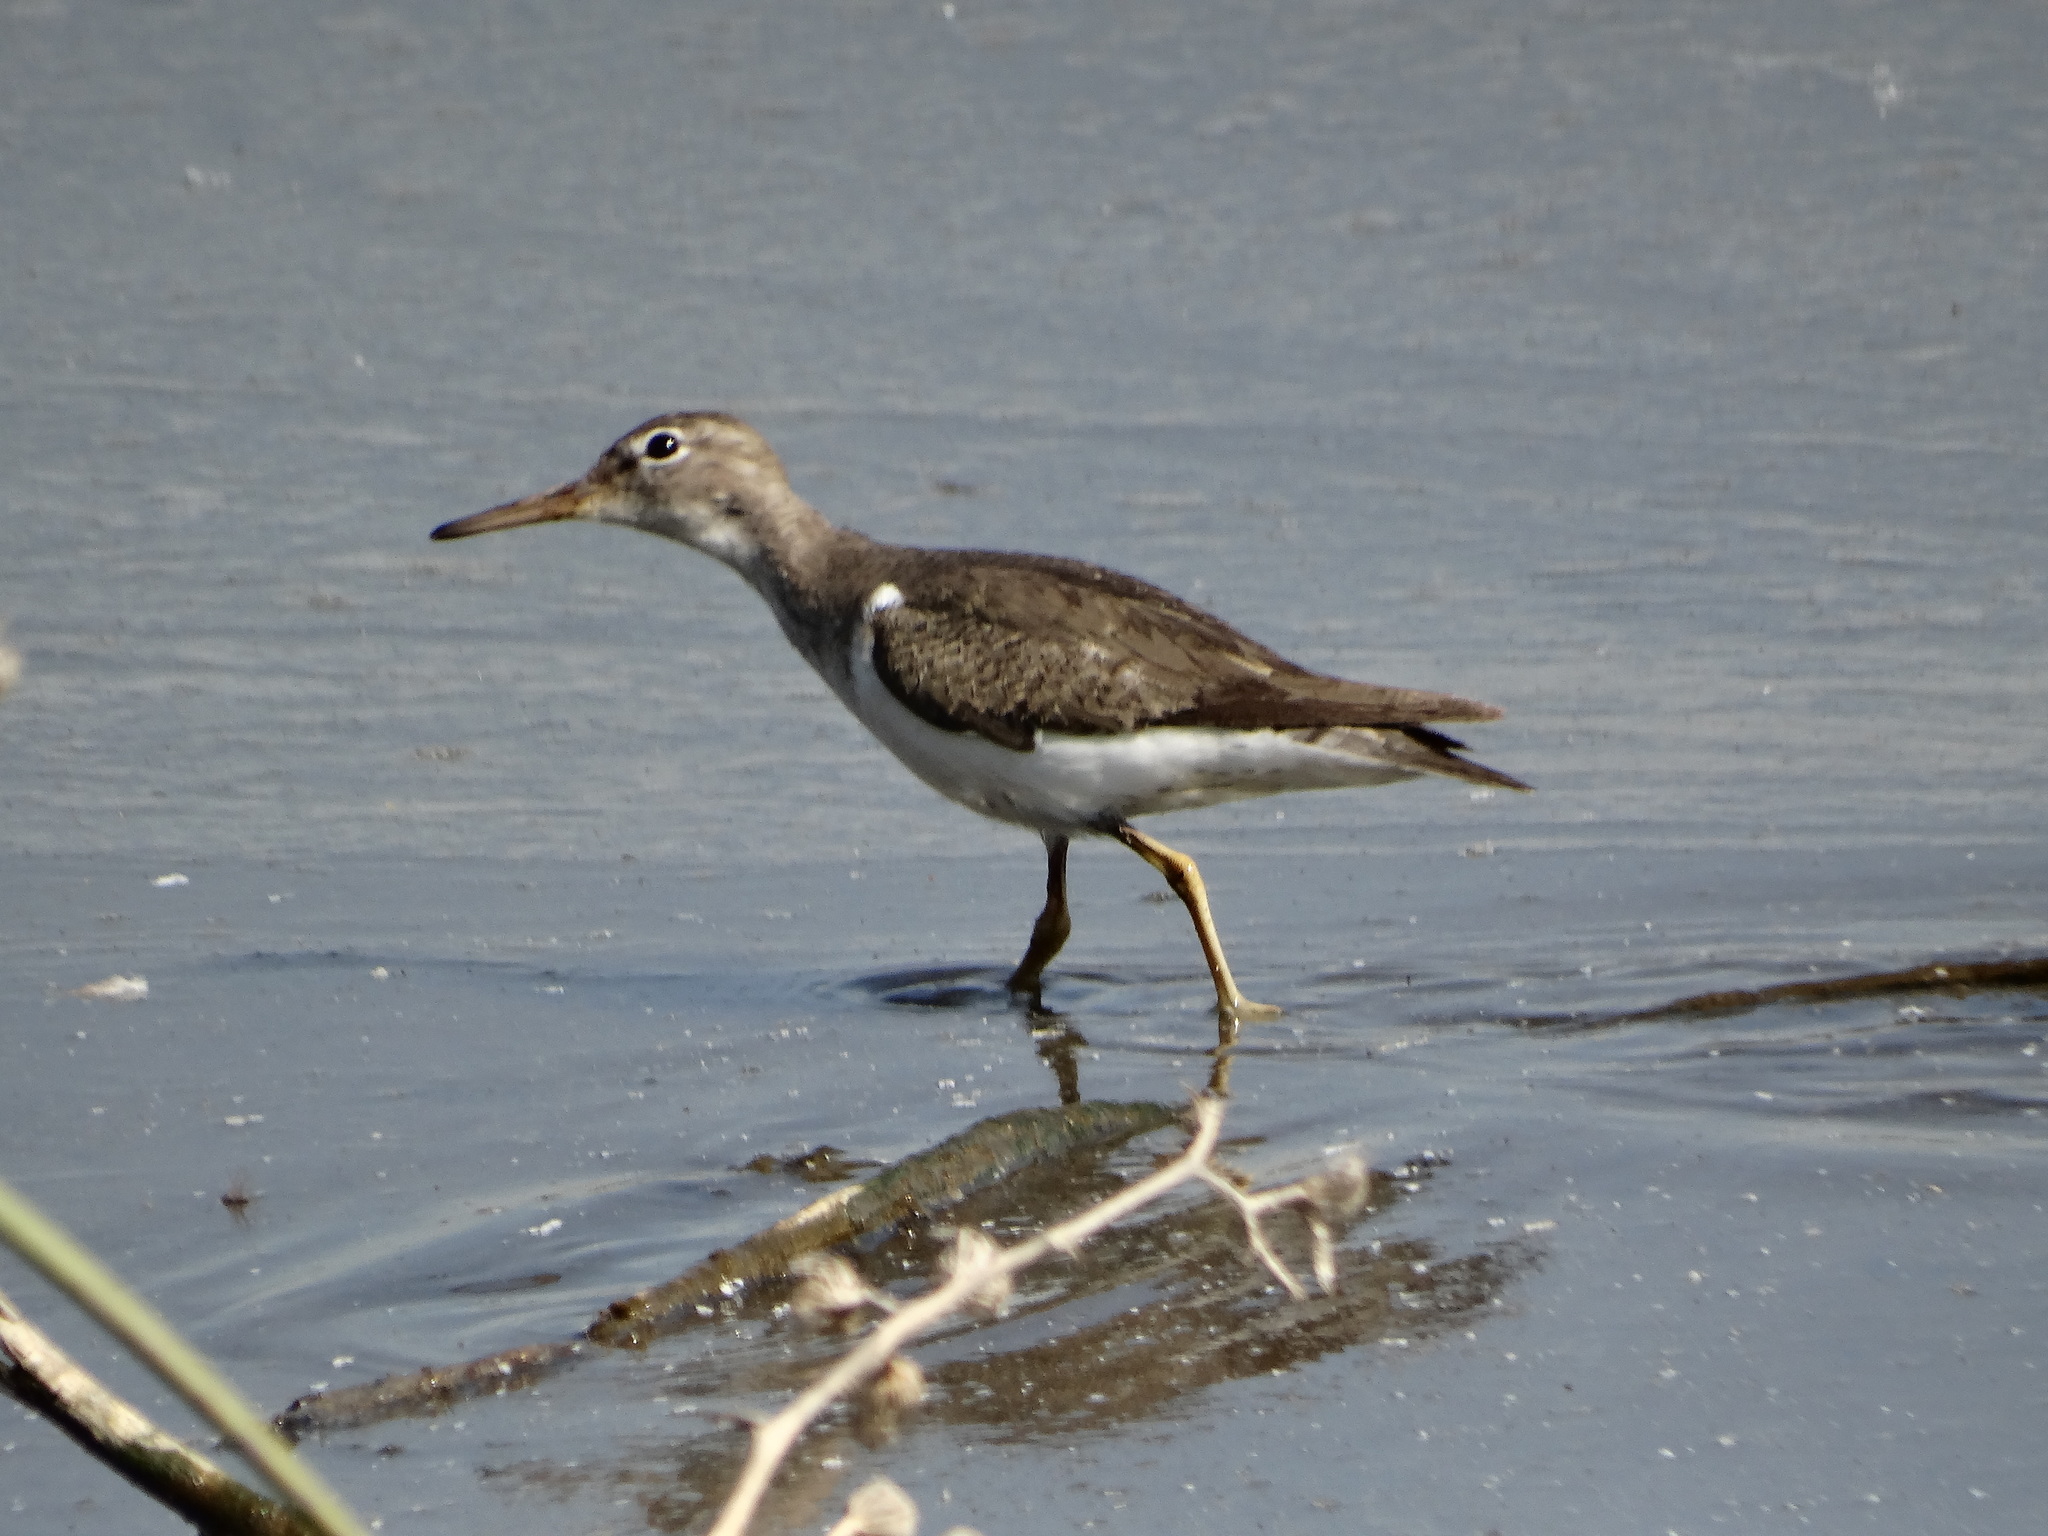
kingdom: Animalia
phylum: Chordata
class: Aves
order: Charadriiformes
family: Scolopacidae
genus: Actitis
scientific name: Actitis macularius
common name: Spotted sandpiper
